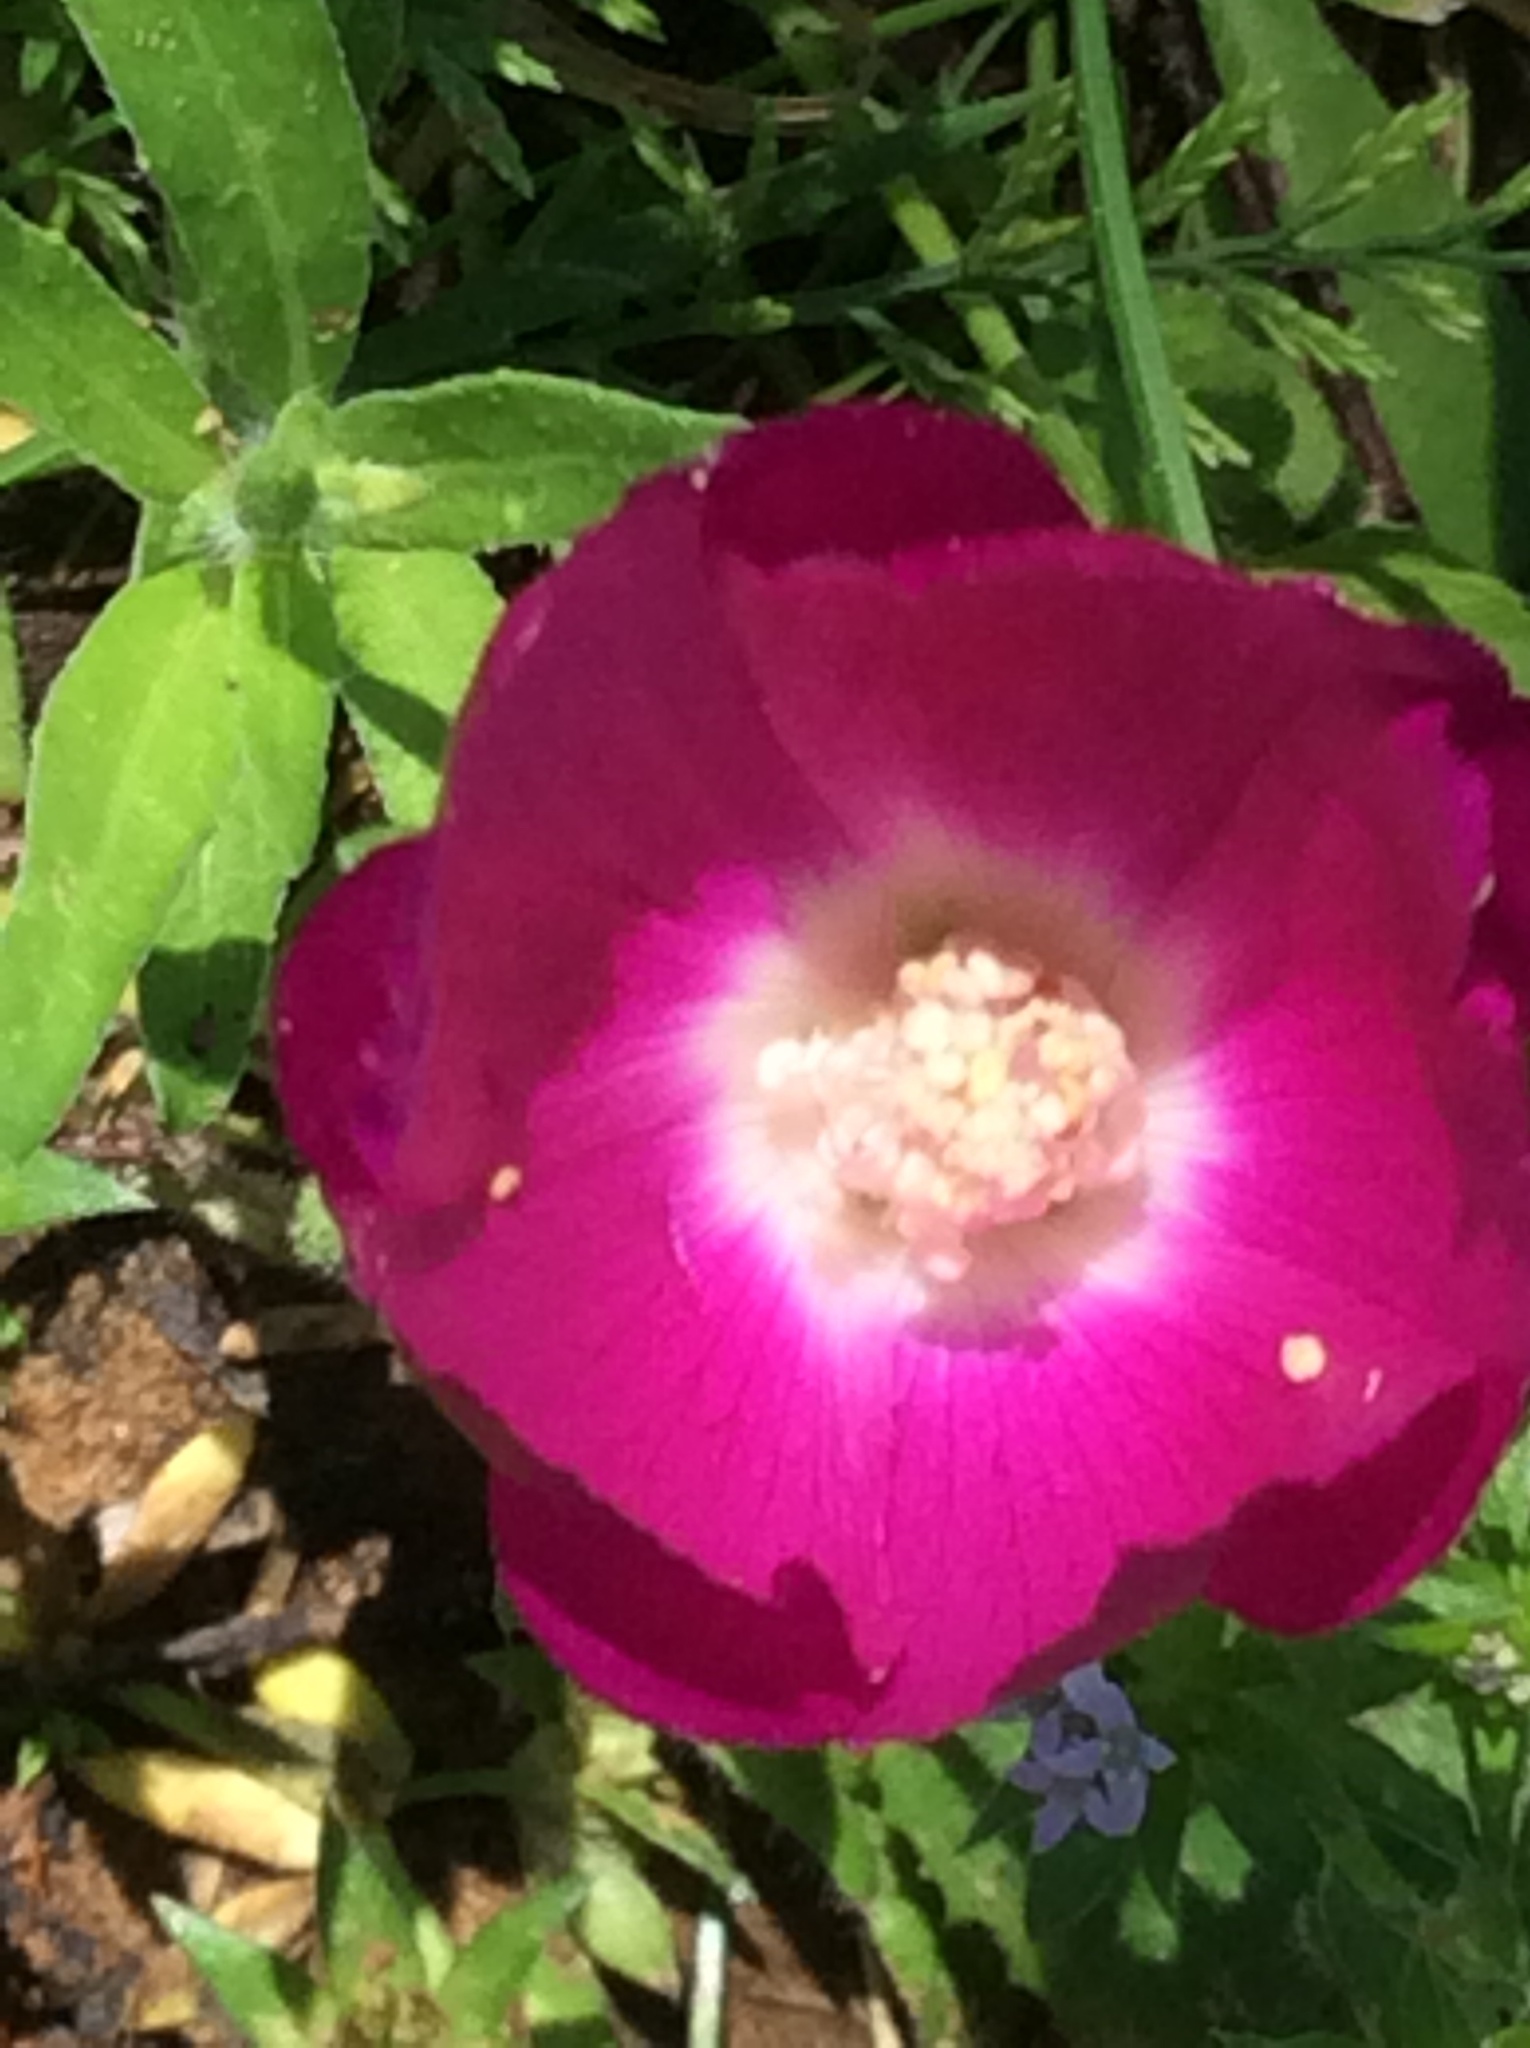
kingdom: Plantae
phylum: Tracheophyta
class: Magnoliopsida
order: Malvales
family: Malvaceae
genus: Callirhoe
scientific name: Callirhoe involucrata
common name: Purple poppy-mallow
